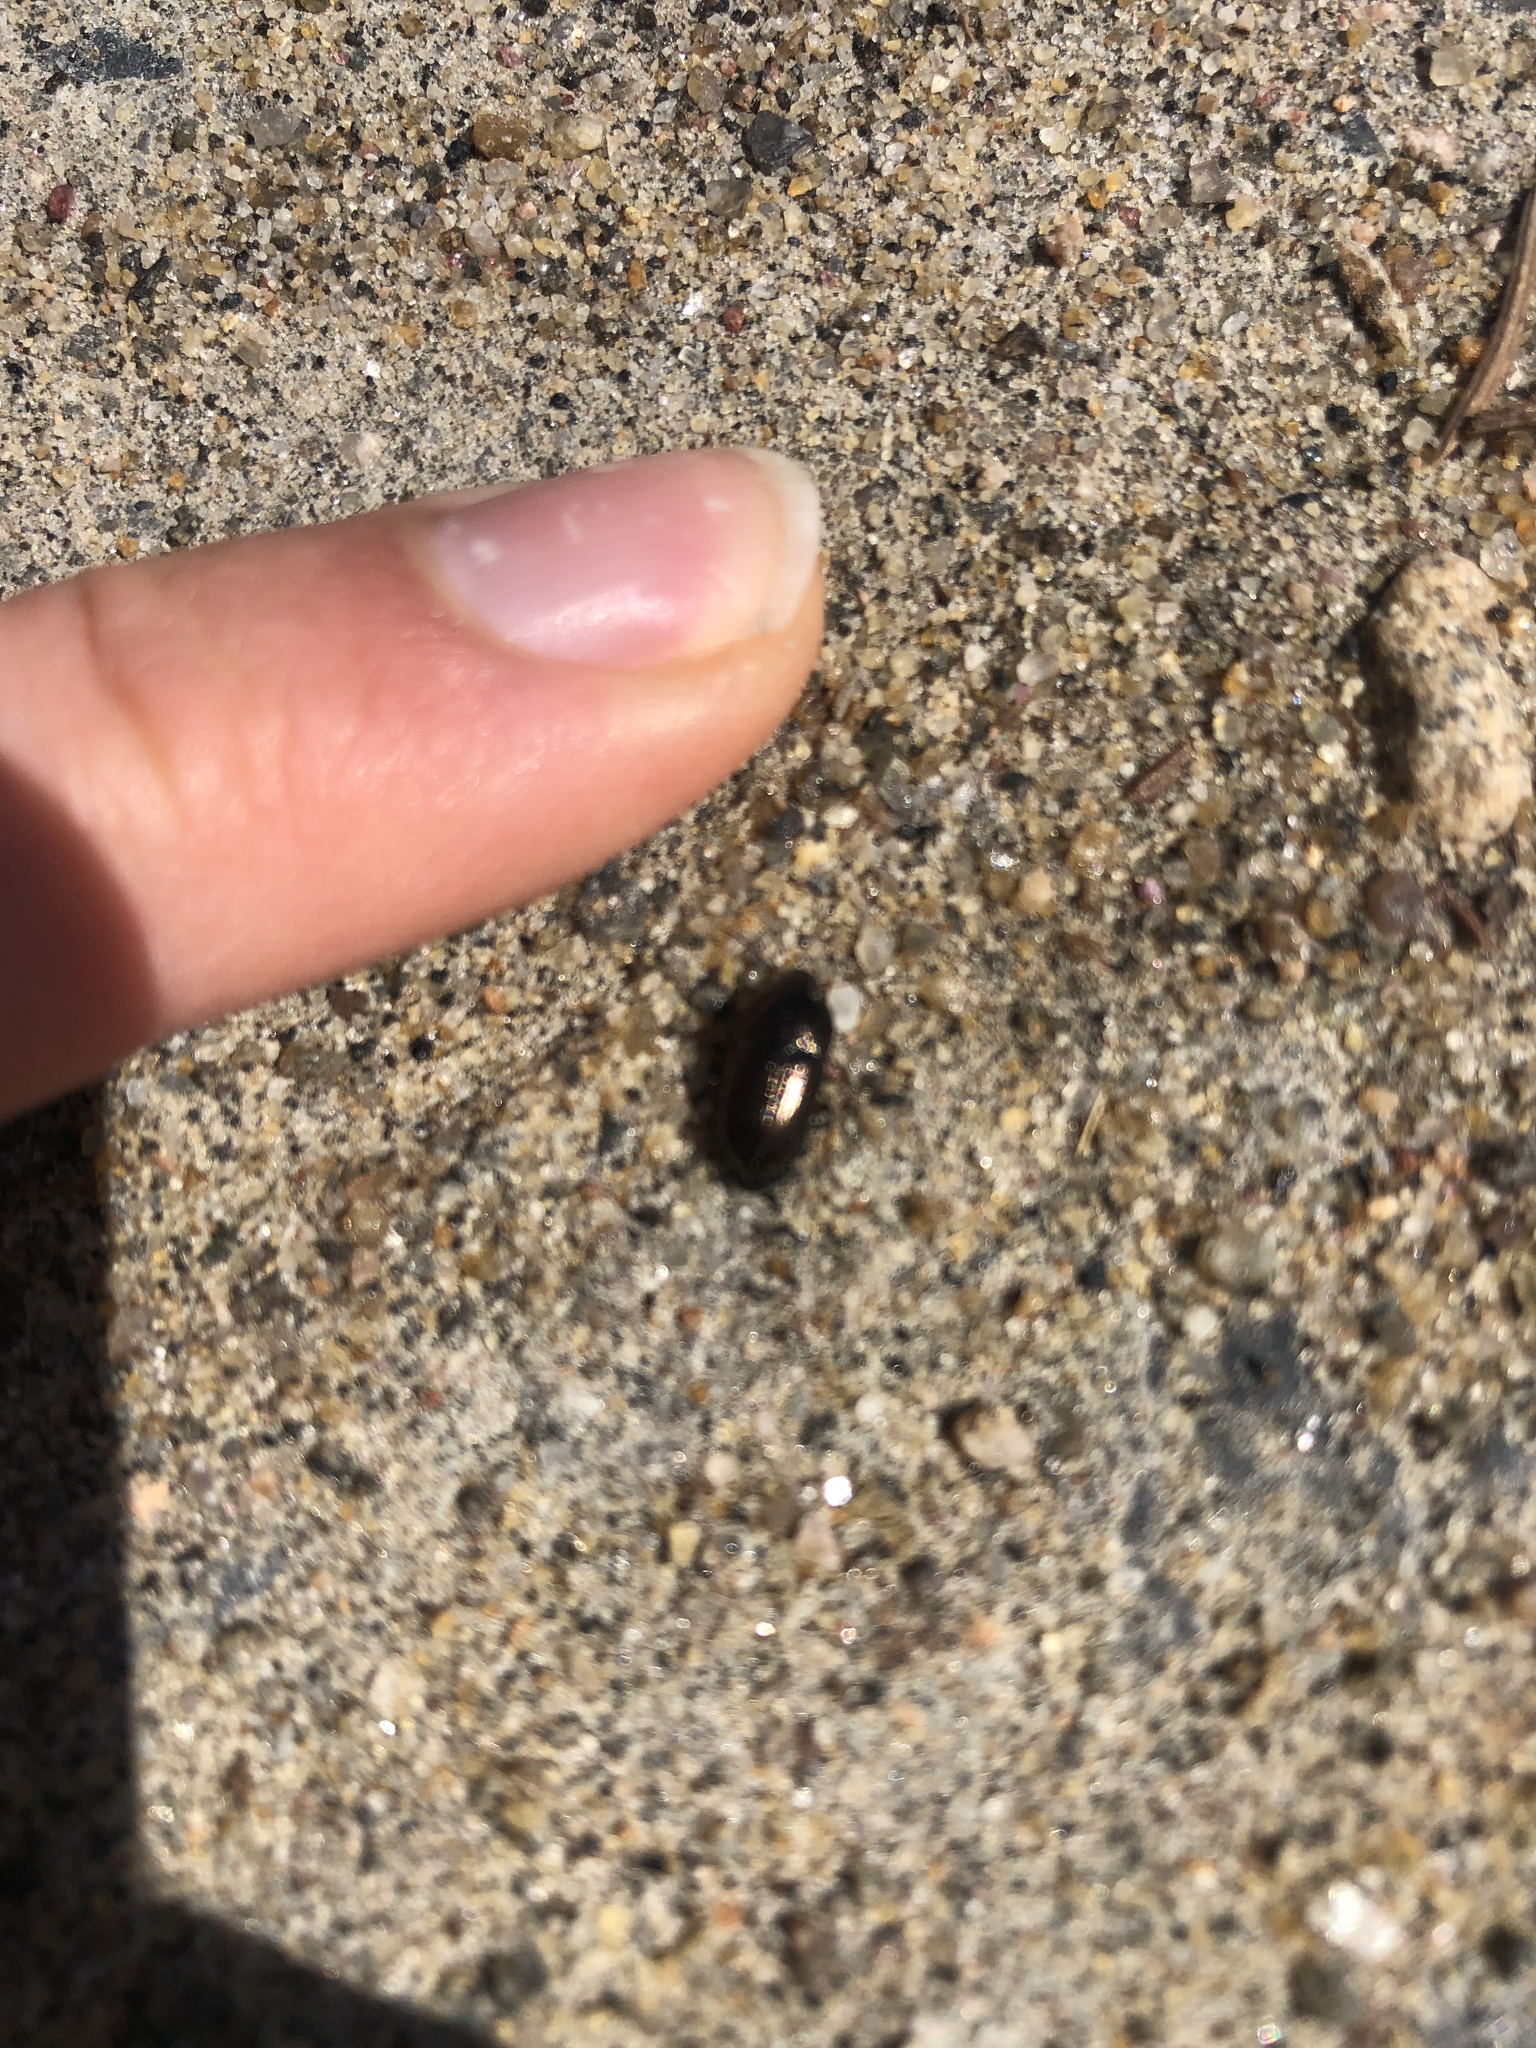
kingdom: Animalia
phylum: Arthropoda
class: Insecta
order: Coleoptera
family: Carabidae
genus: Amara
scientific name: Amara
